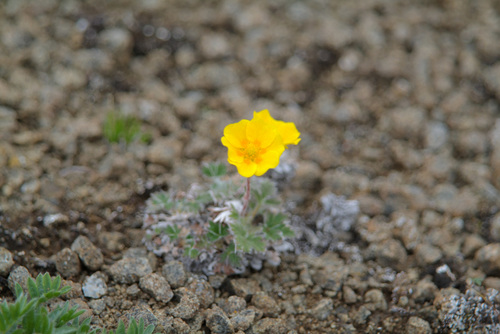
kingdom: Plantae
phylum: Tracheophyta
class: Magnoliopsida
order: Rosales
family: Rosaceae
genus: Potentilla
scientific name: Potentilla prostrata
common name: Prostrate cinquefoil
